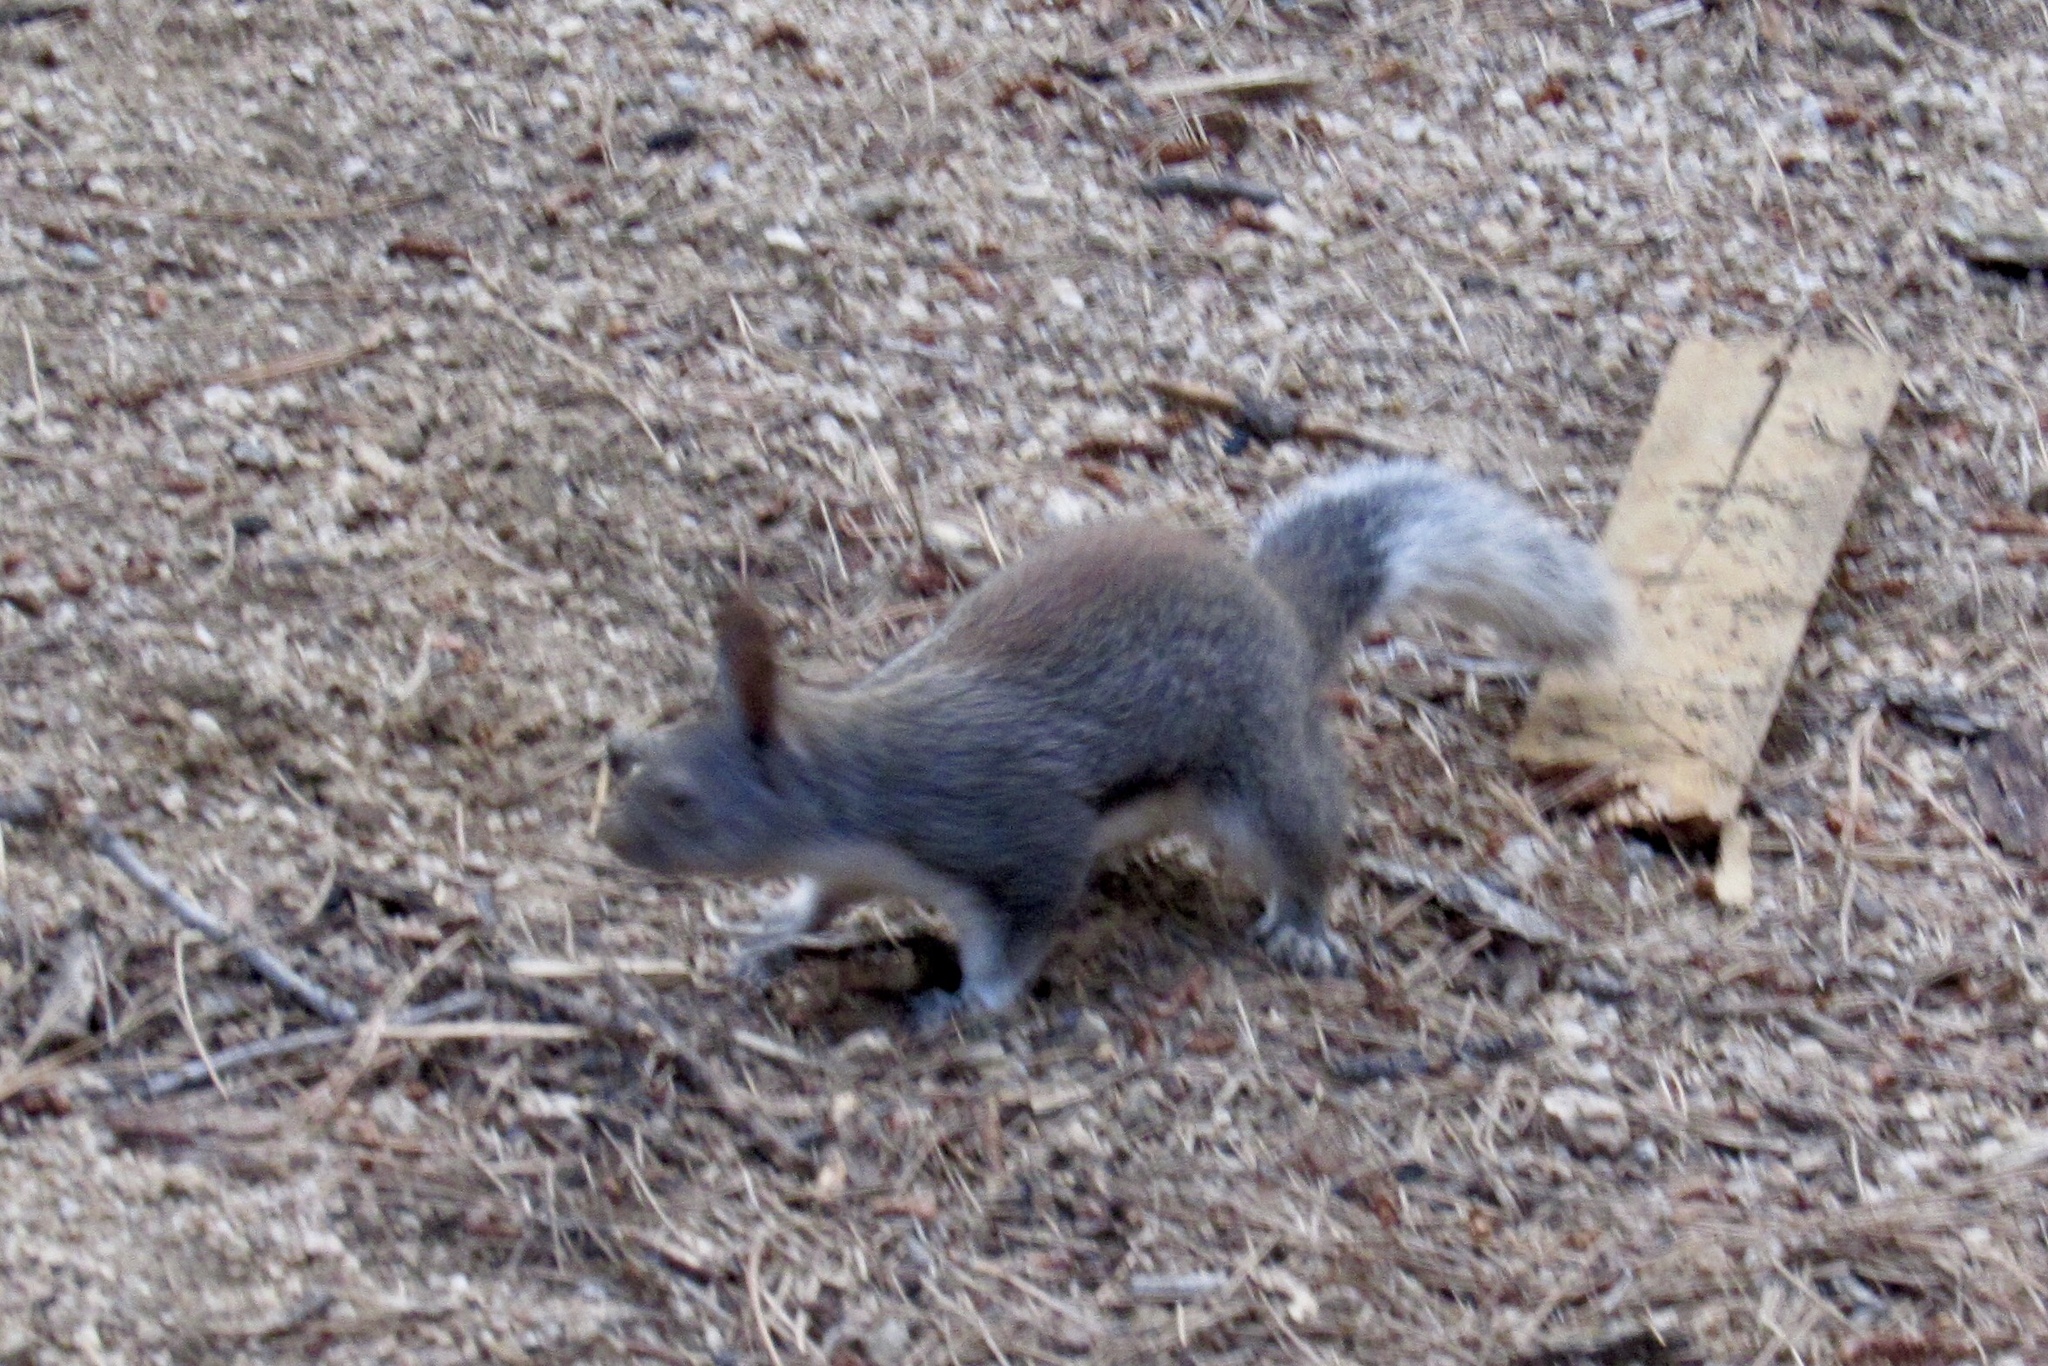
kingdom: Animalia
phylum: Chordata
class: Mammalia
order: Rodentia
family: Sciuridae
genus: Sciurus
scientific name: Sciurus aberti
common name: Abert's squirrel
